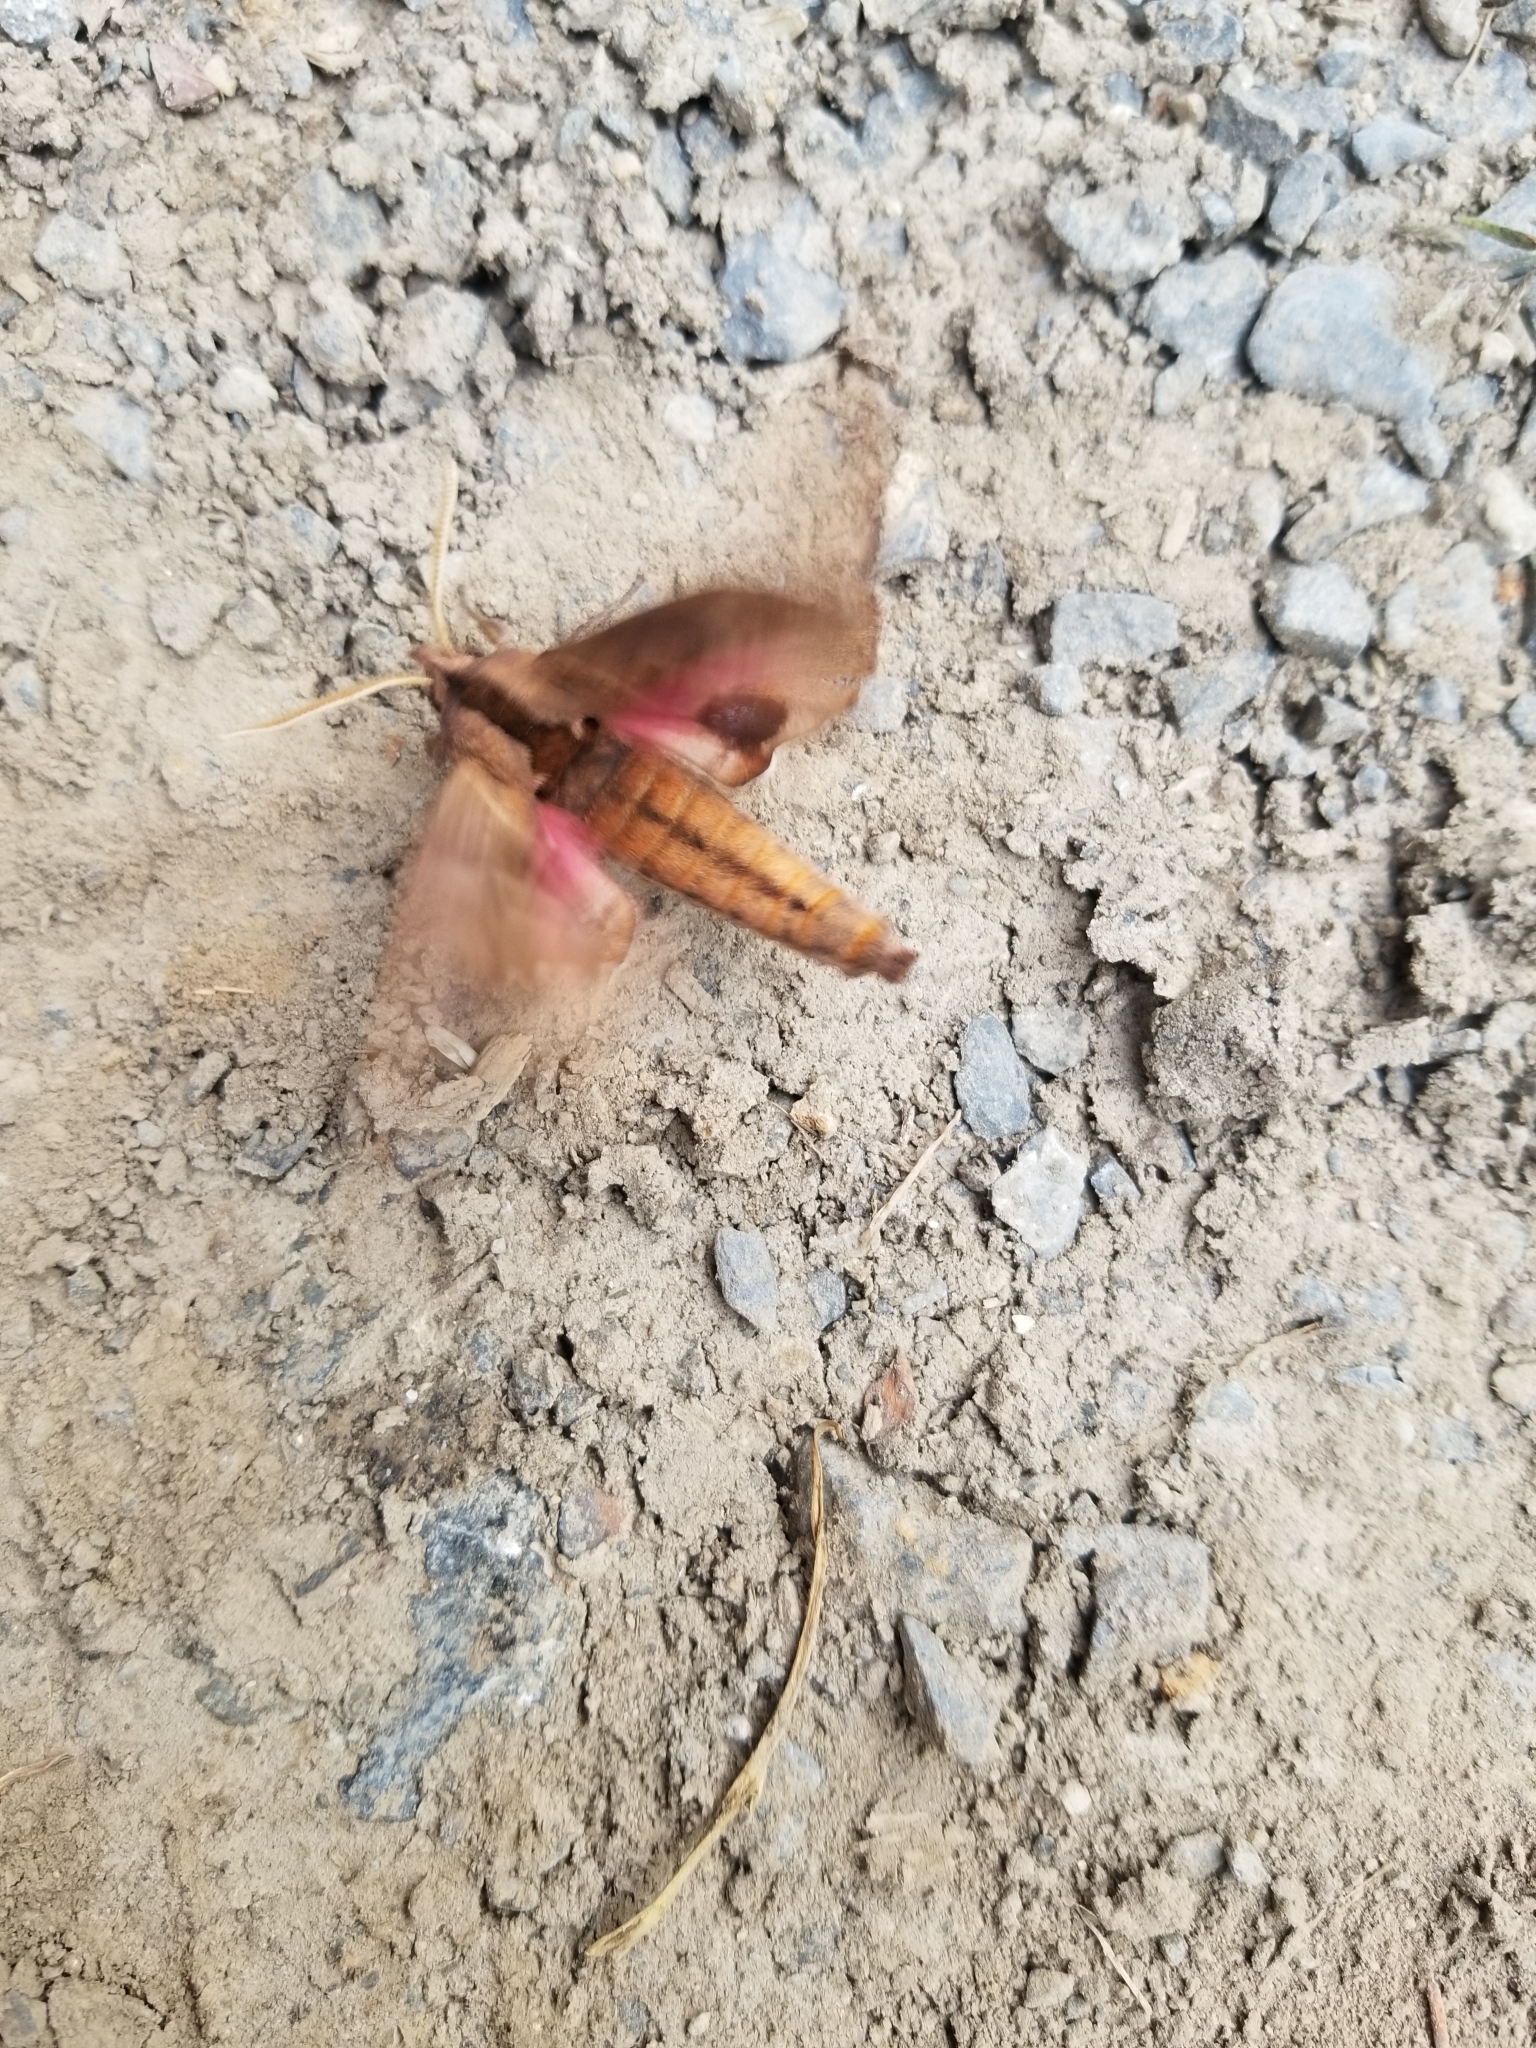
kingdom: Animalia
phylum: Arthropoda
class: Insecta
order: Lepidoptera
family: Sphingidae
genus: Paonias
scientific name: Paonias excaecata
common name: Blind-eyed sphinx
